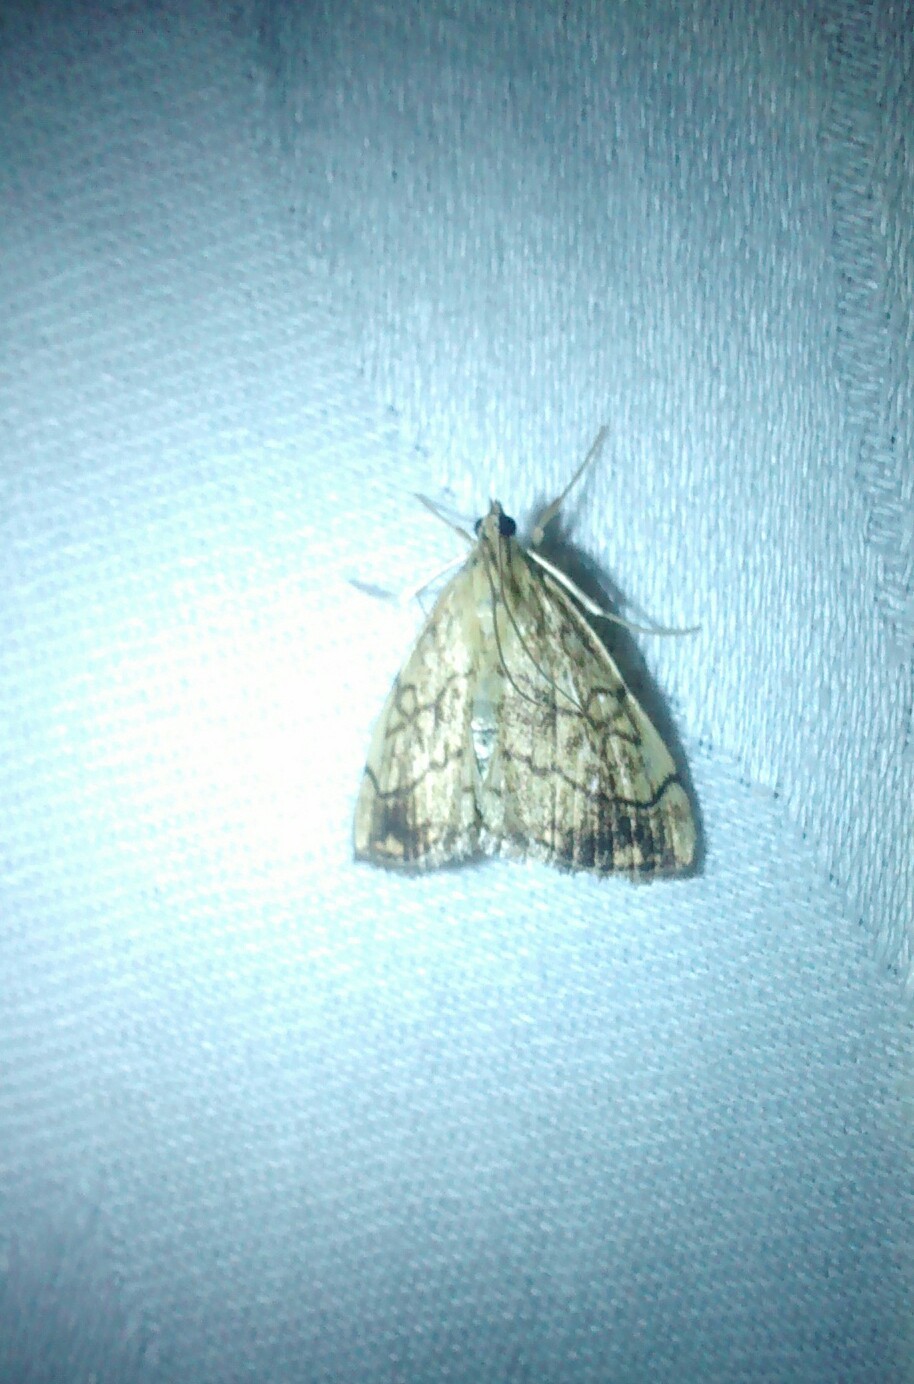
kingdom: Animalia
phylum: Arthropoda
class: Insecta
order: Lepidoptera
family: Crambidae
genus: Evergestis
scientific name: Evergestis pallidata
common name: Chequered pearl
